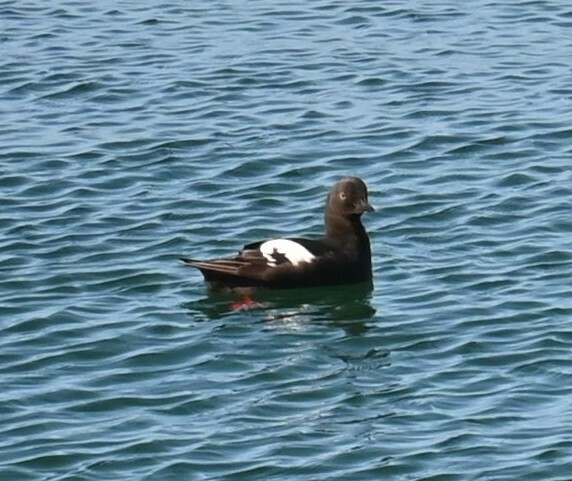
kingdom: Animalia
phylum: Chordata
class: Aves
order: Charadriiformes
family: Alcidae
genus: Cepphus
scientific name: Cepphus columba
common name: Pigeon guillemot
